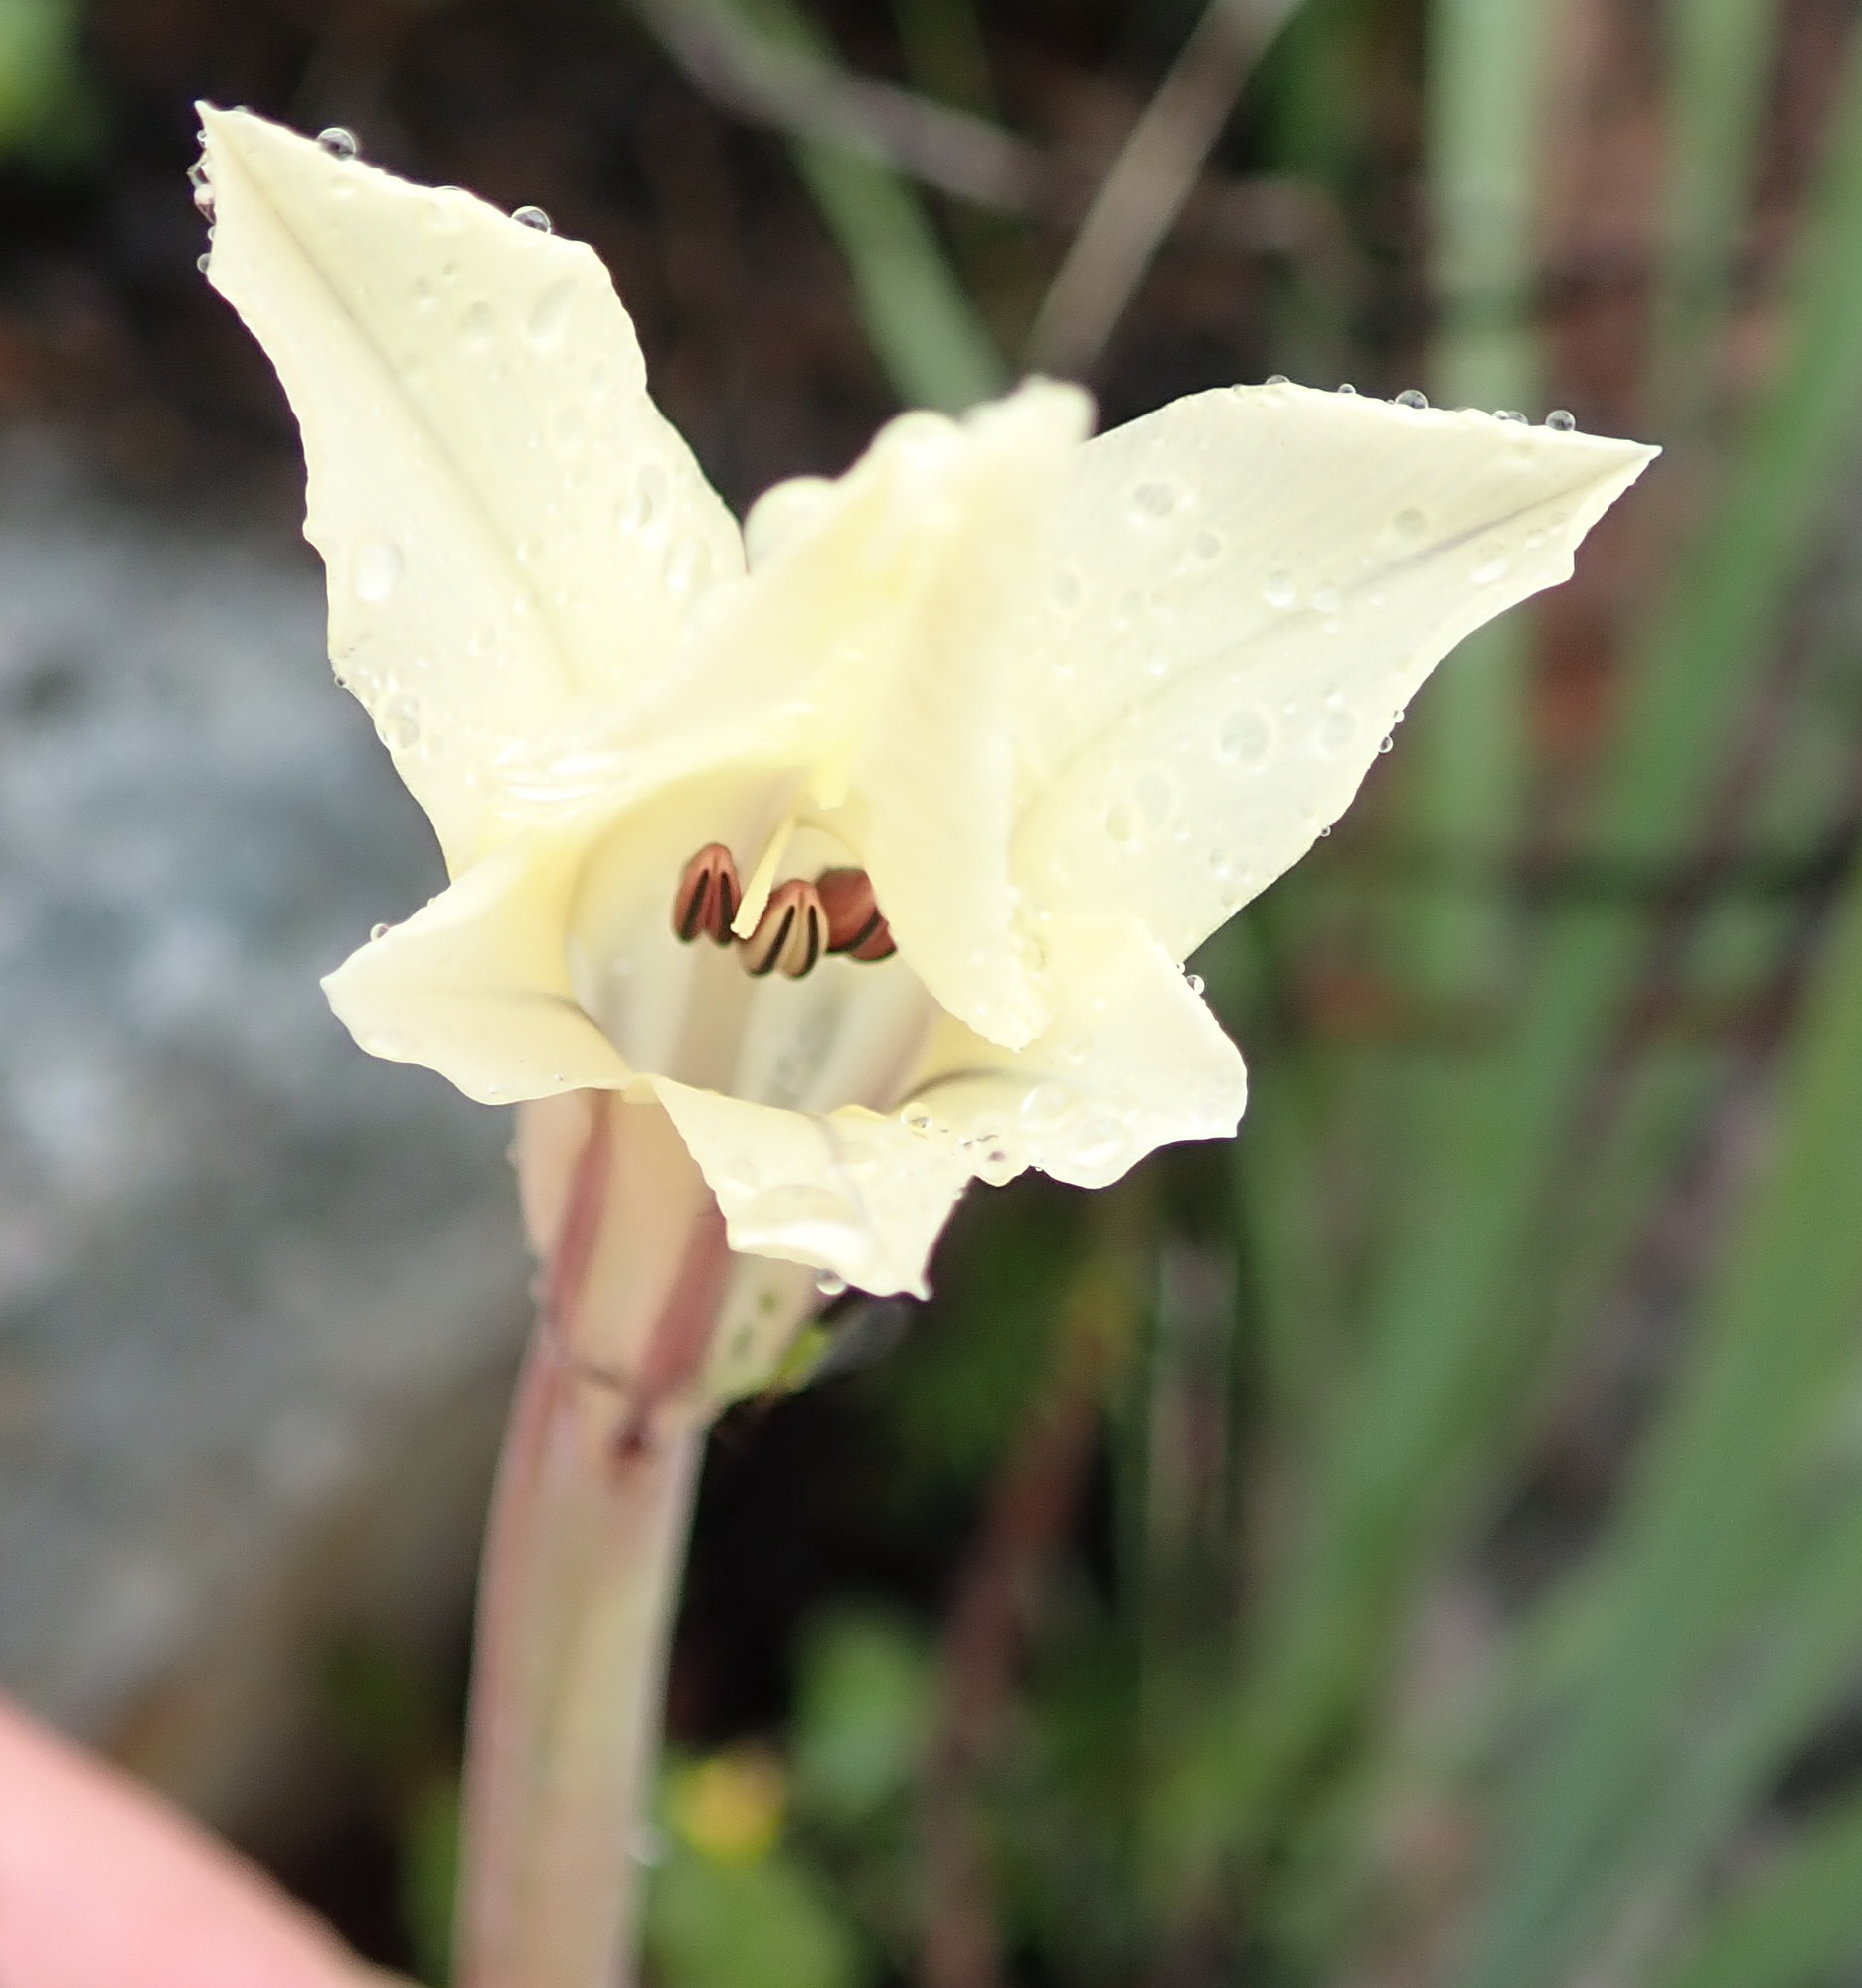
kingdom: Plantae
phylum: Tracheophyta
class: Liliopsida
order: Asparagales
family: Iridaceae
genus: Gladiolus
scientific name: Gladiolus floribundus
